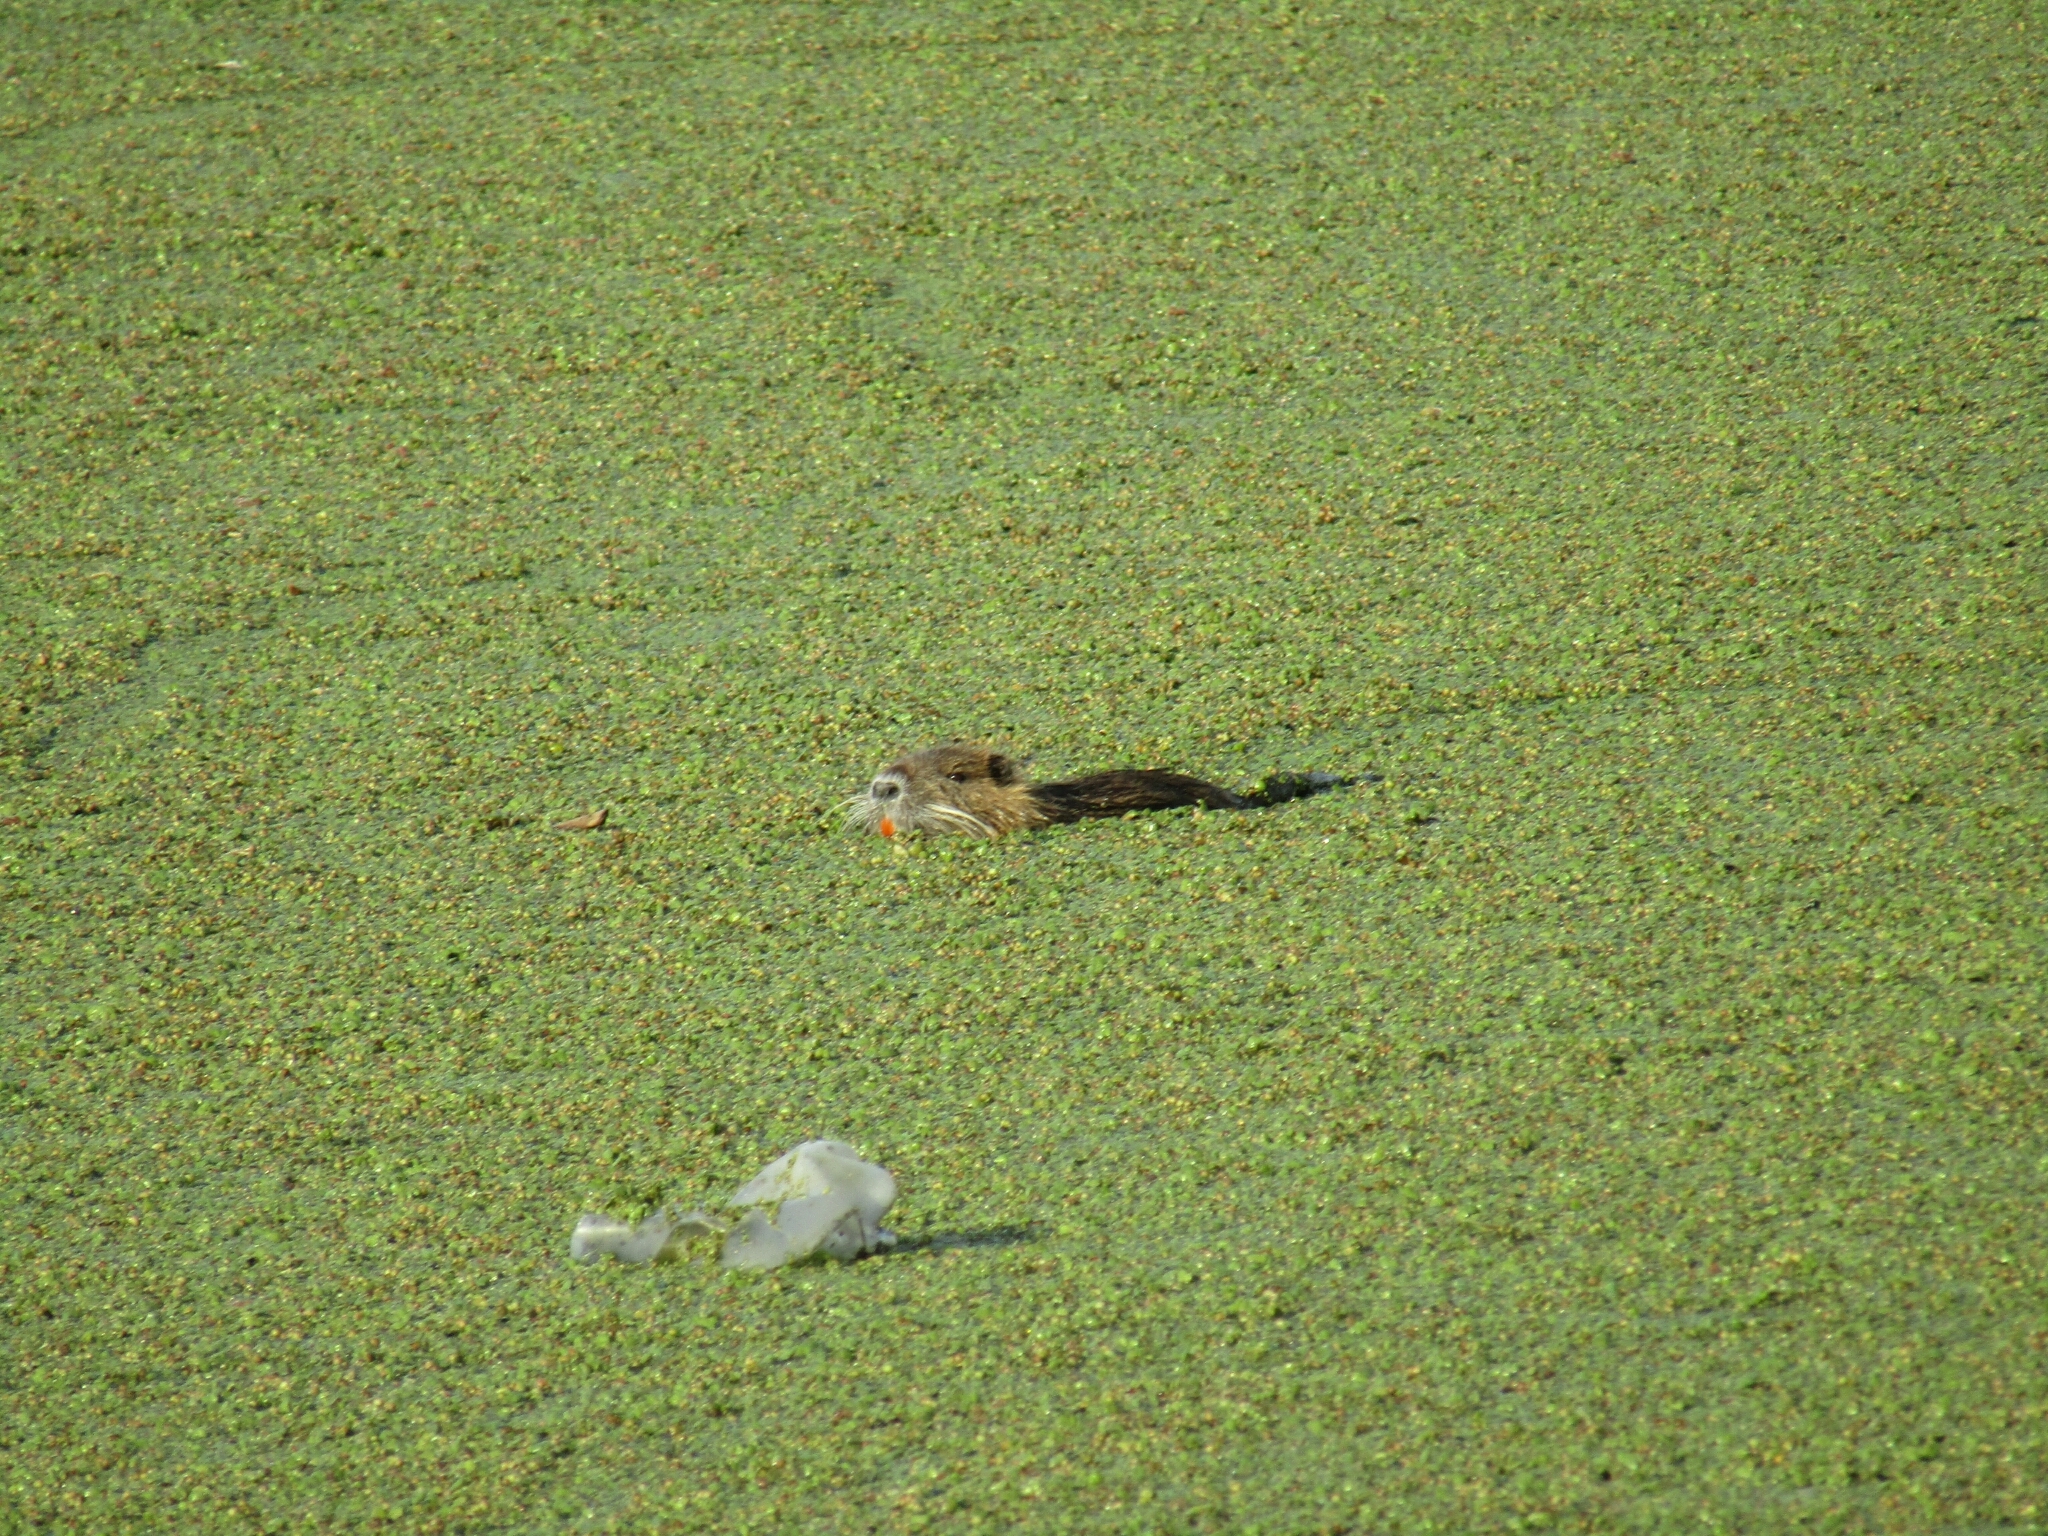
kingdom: Animalia
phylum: Chordata
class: Mammalia
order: Rodentia
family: Myocastoridae
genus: Myocastor
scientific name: Myocastor coypus
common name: Coypu
